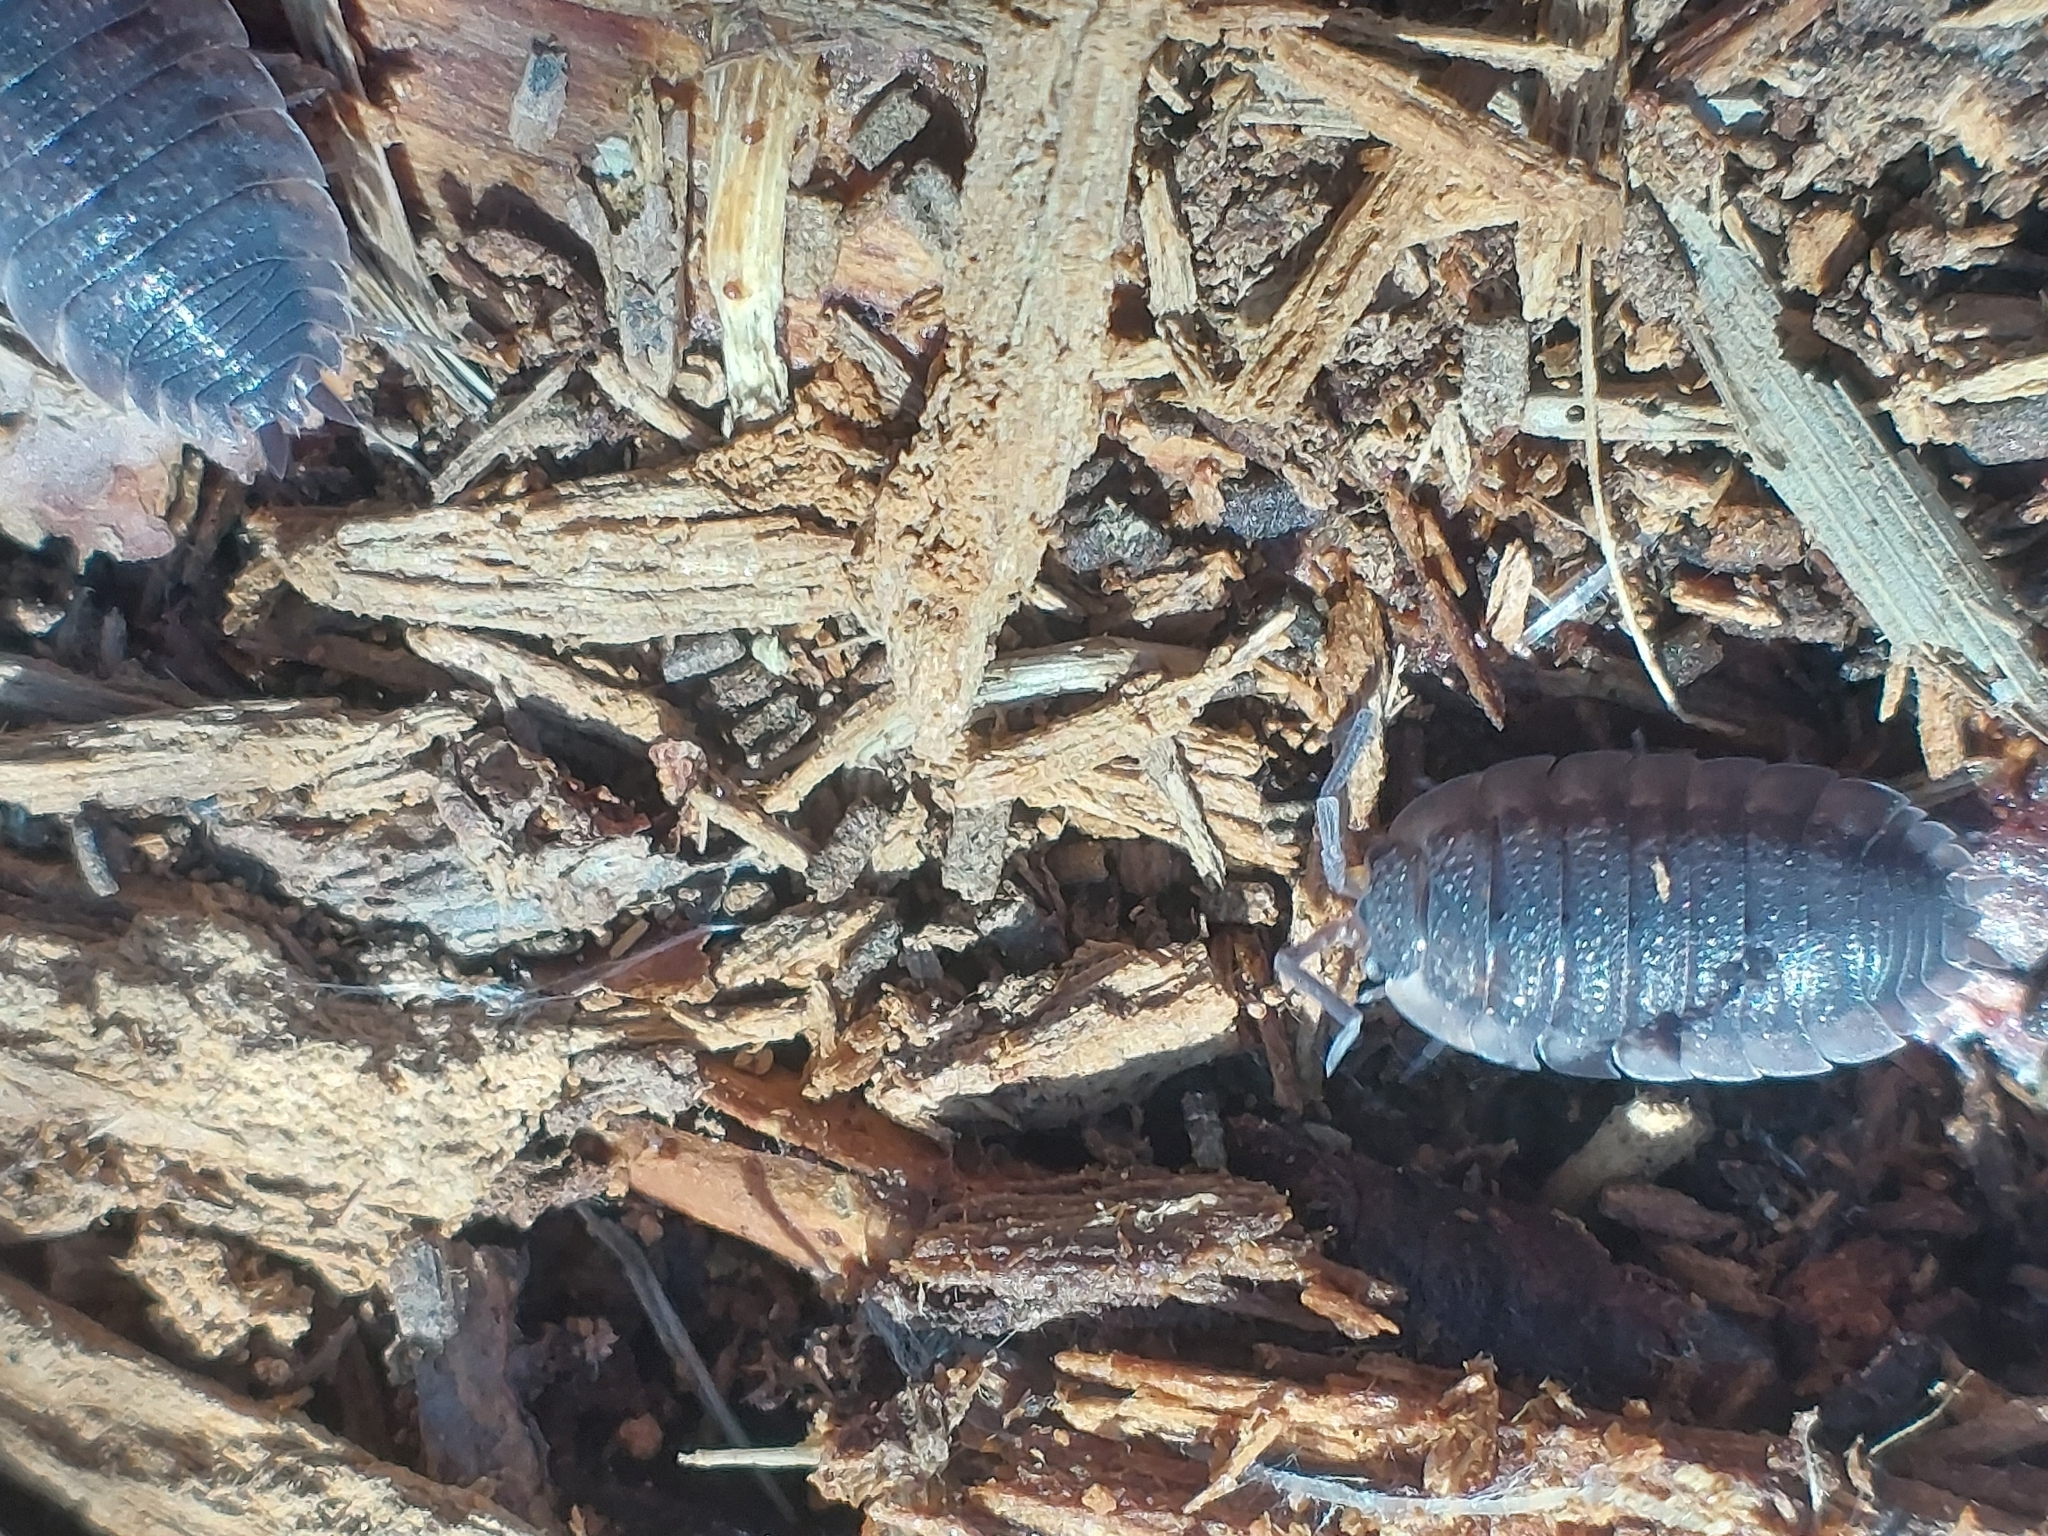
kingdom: Animalia
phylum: Arthropoda
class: Malacostraca
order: Isopoda
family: Porcellionidae
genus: Porcellio
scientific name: Porcellio scaber
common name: Common rough woodlouse
